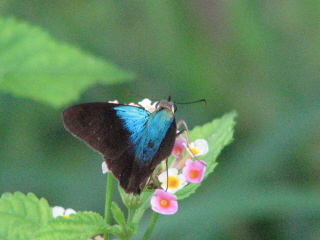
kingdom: Animalia
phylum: Arthropoda
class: Insecta
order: Lepidoptera
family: Hesperiidae
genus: Astraptes
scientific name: Astraptes alector
